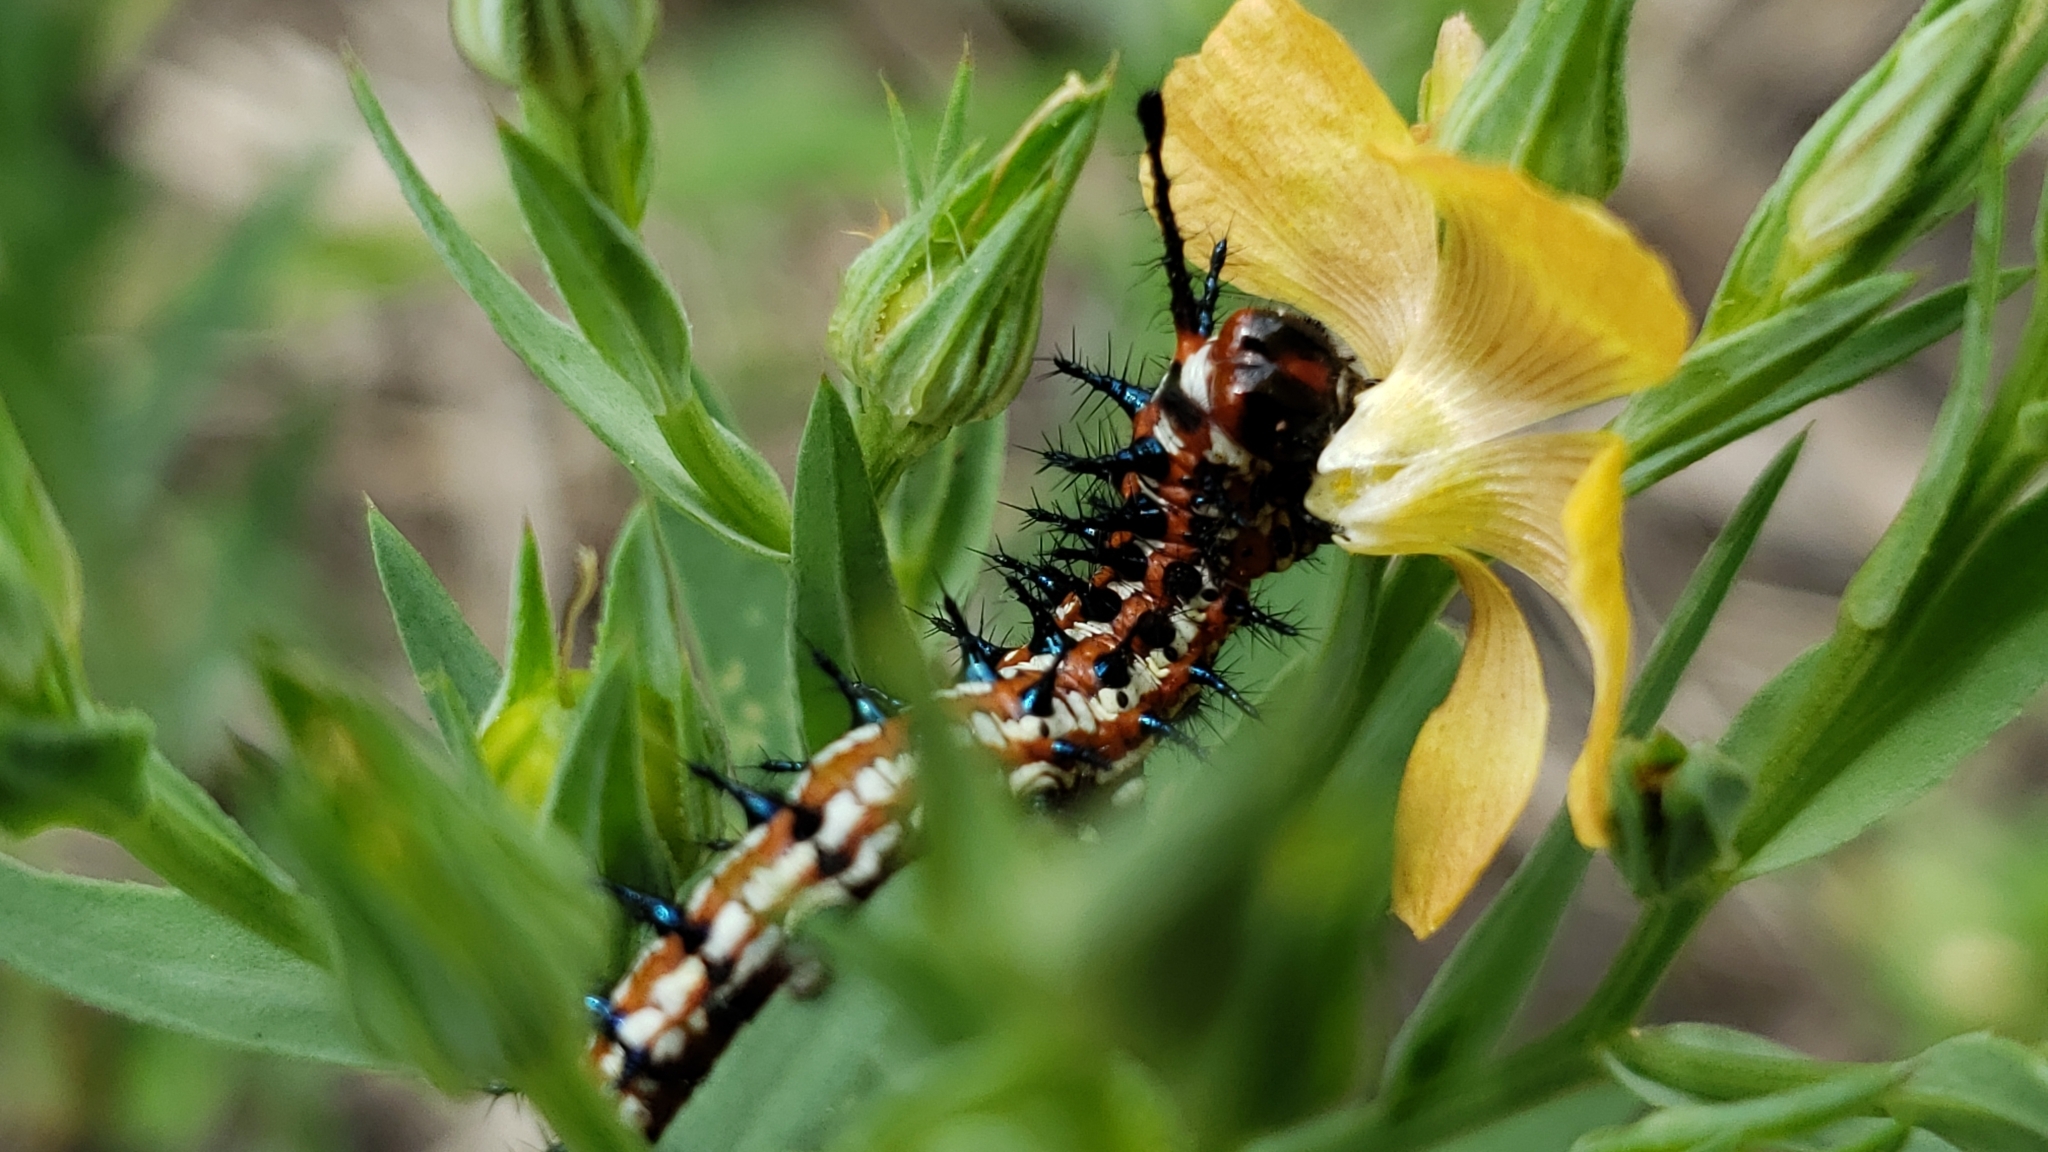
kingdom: Animalia
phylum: Arthropoda
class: Insecta
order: Lepidoptera
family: Nymphalidae
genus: Euptoieta
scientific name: Euptoieta claudia
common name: Variegated fritillary
